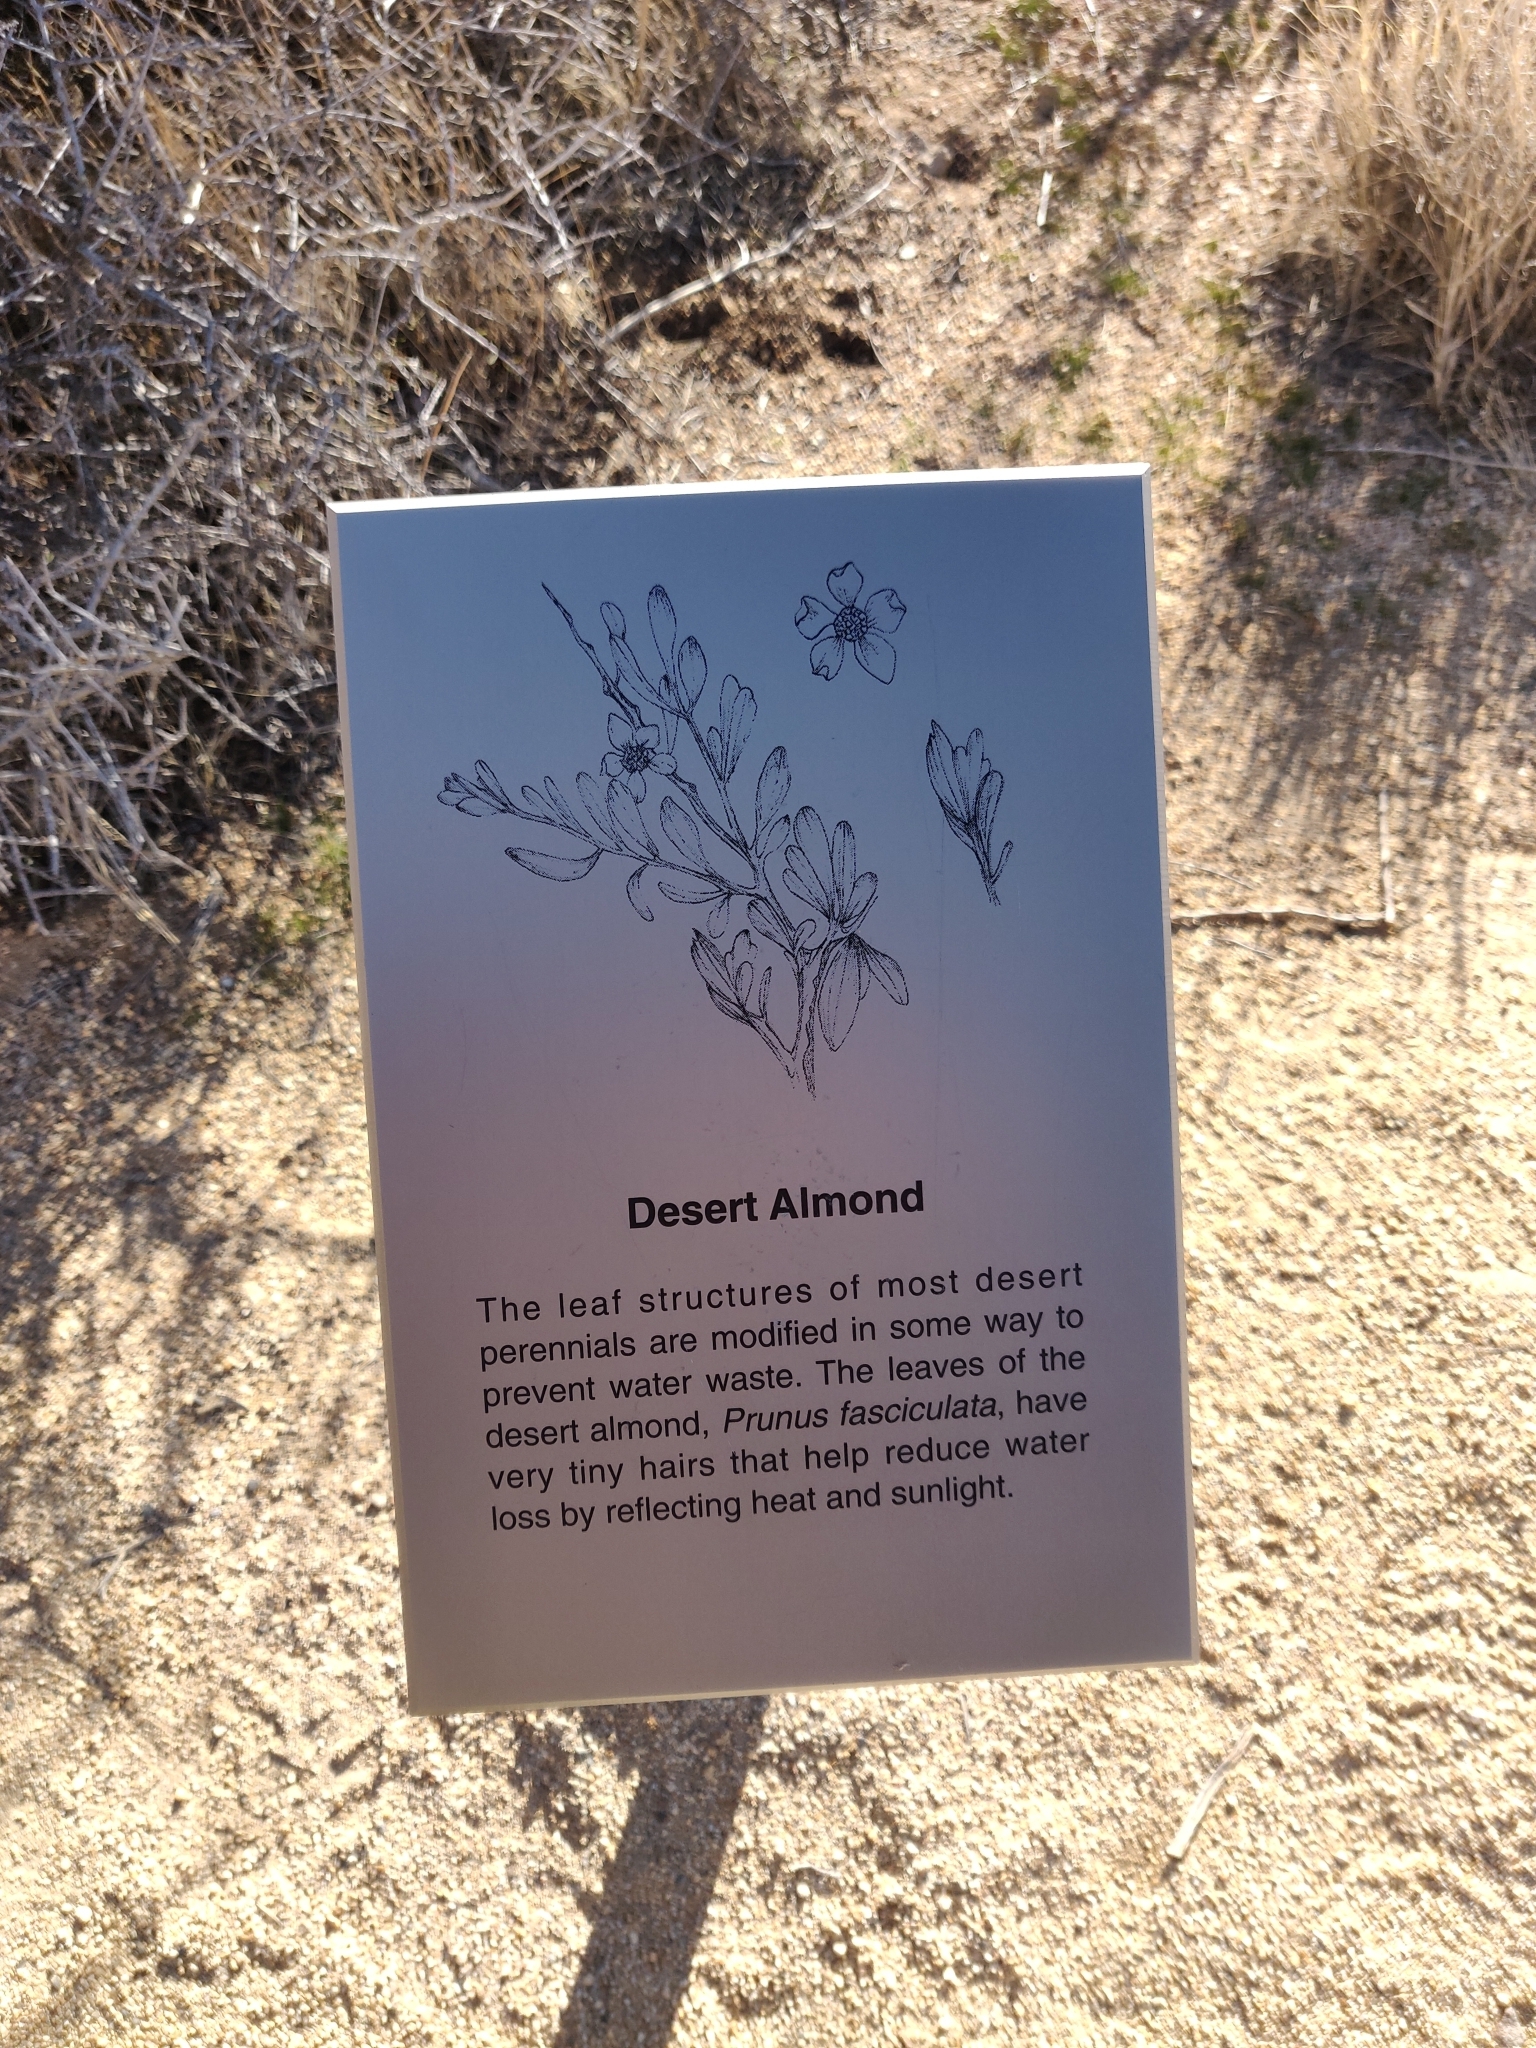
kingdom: Plantae
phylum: Tracheophyta
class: Magnoliopsida
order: Rosales
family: Rosaceae
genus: Prunus
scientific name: Prunus fasciculata
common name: Desert almond
